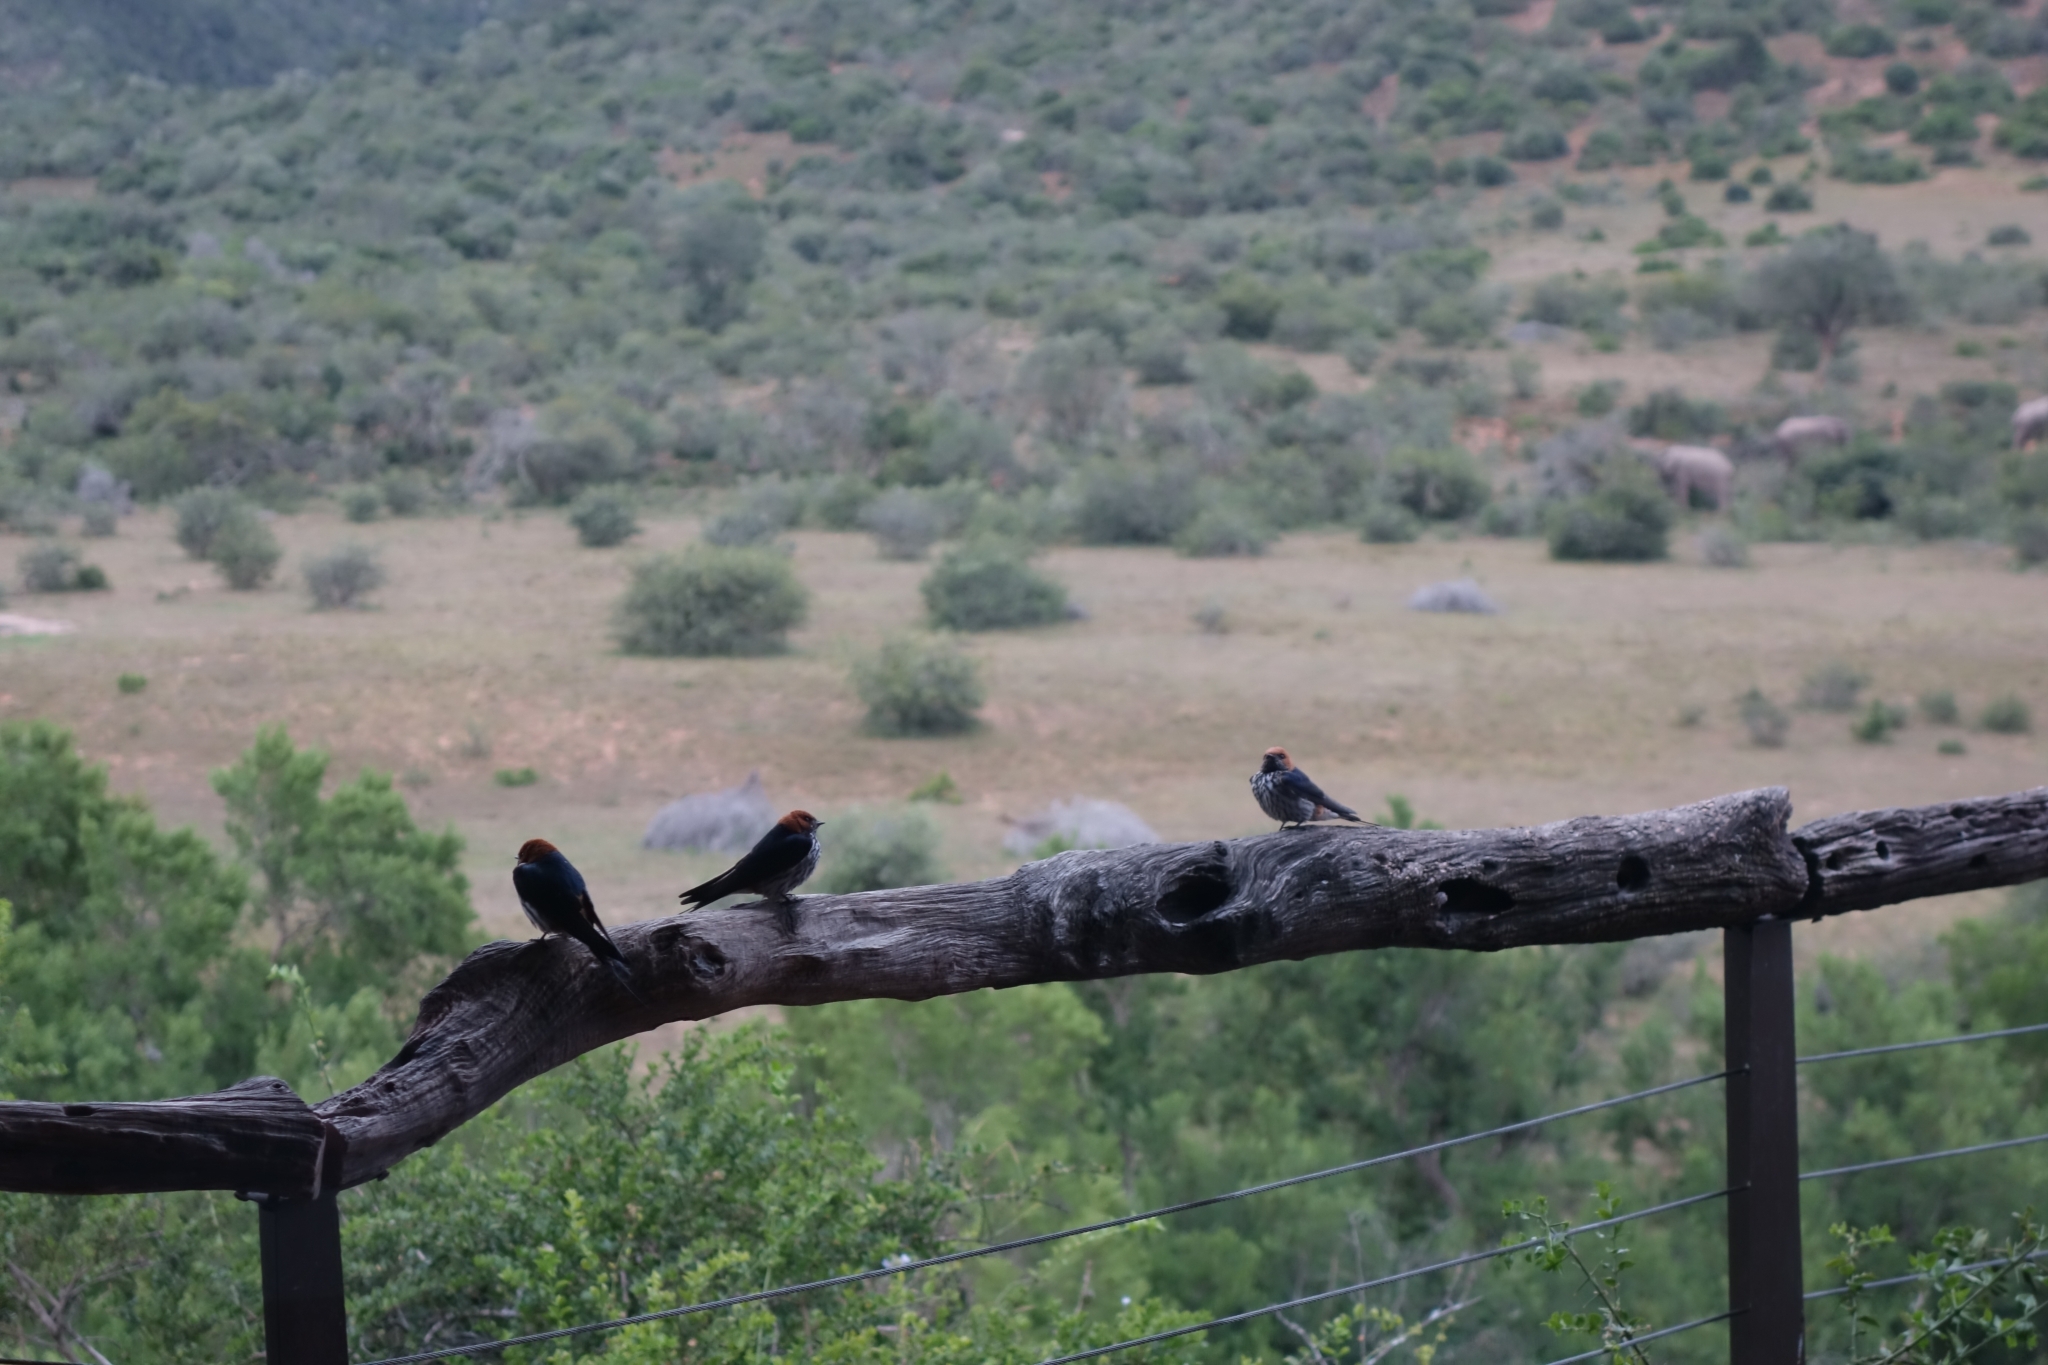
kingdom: Animalia
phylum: Chordata
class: Aves
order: Passeriformes
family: Hirundinidae
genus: Cecropis
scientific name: Cecropis abyssinica
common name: Lesser striped-swallow
